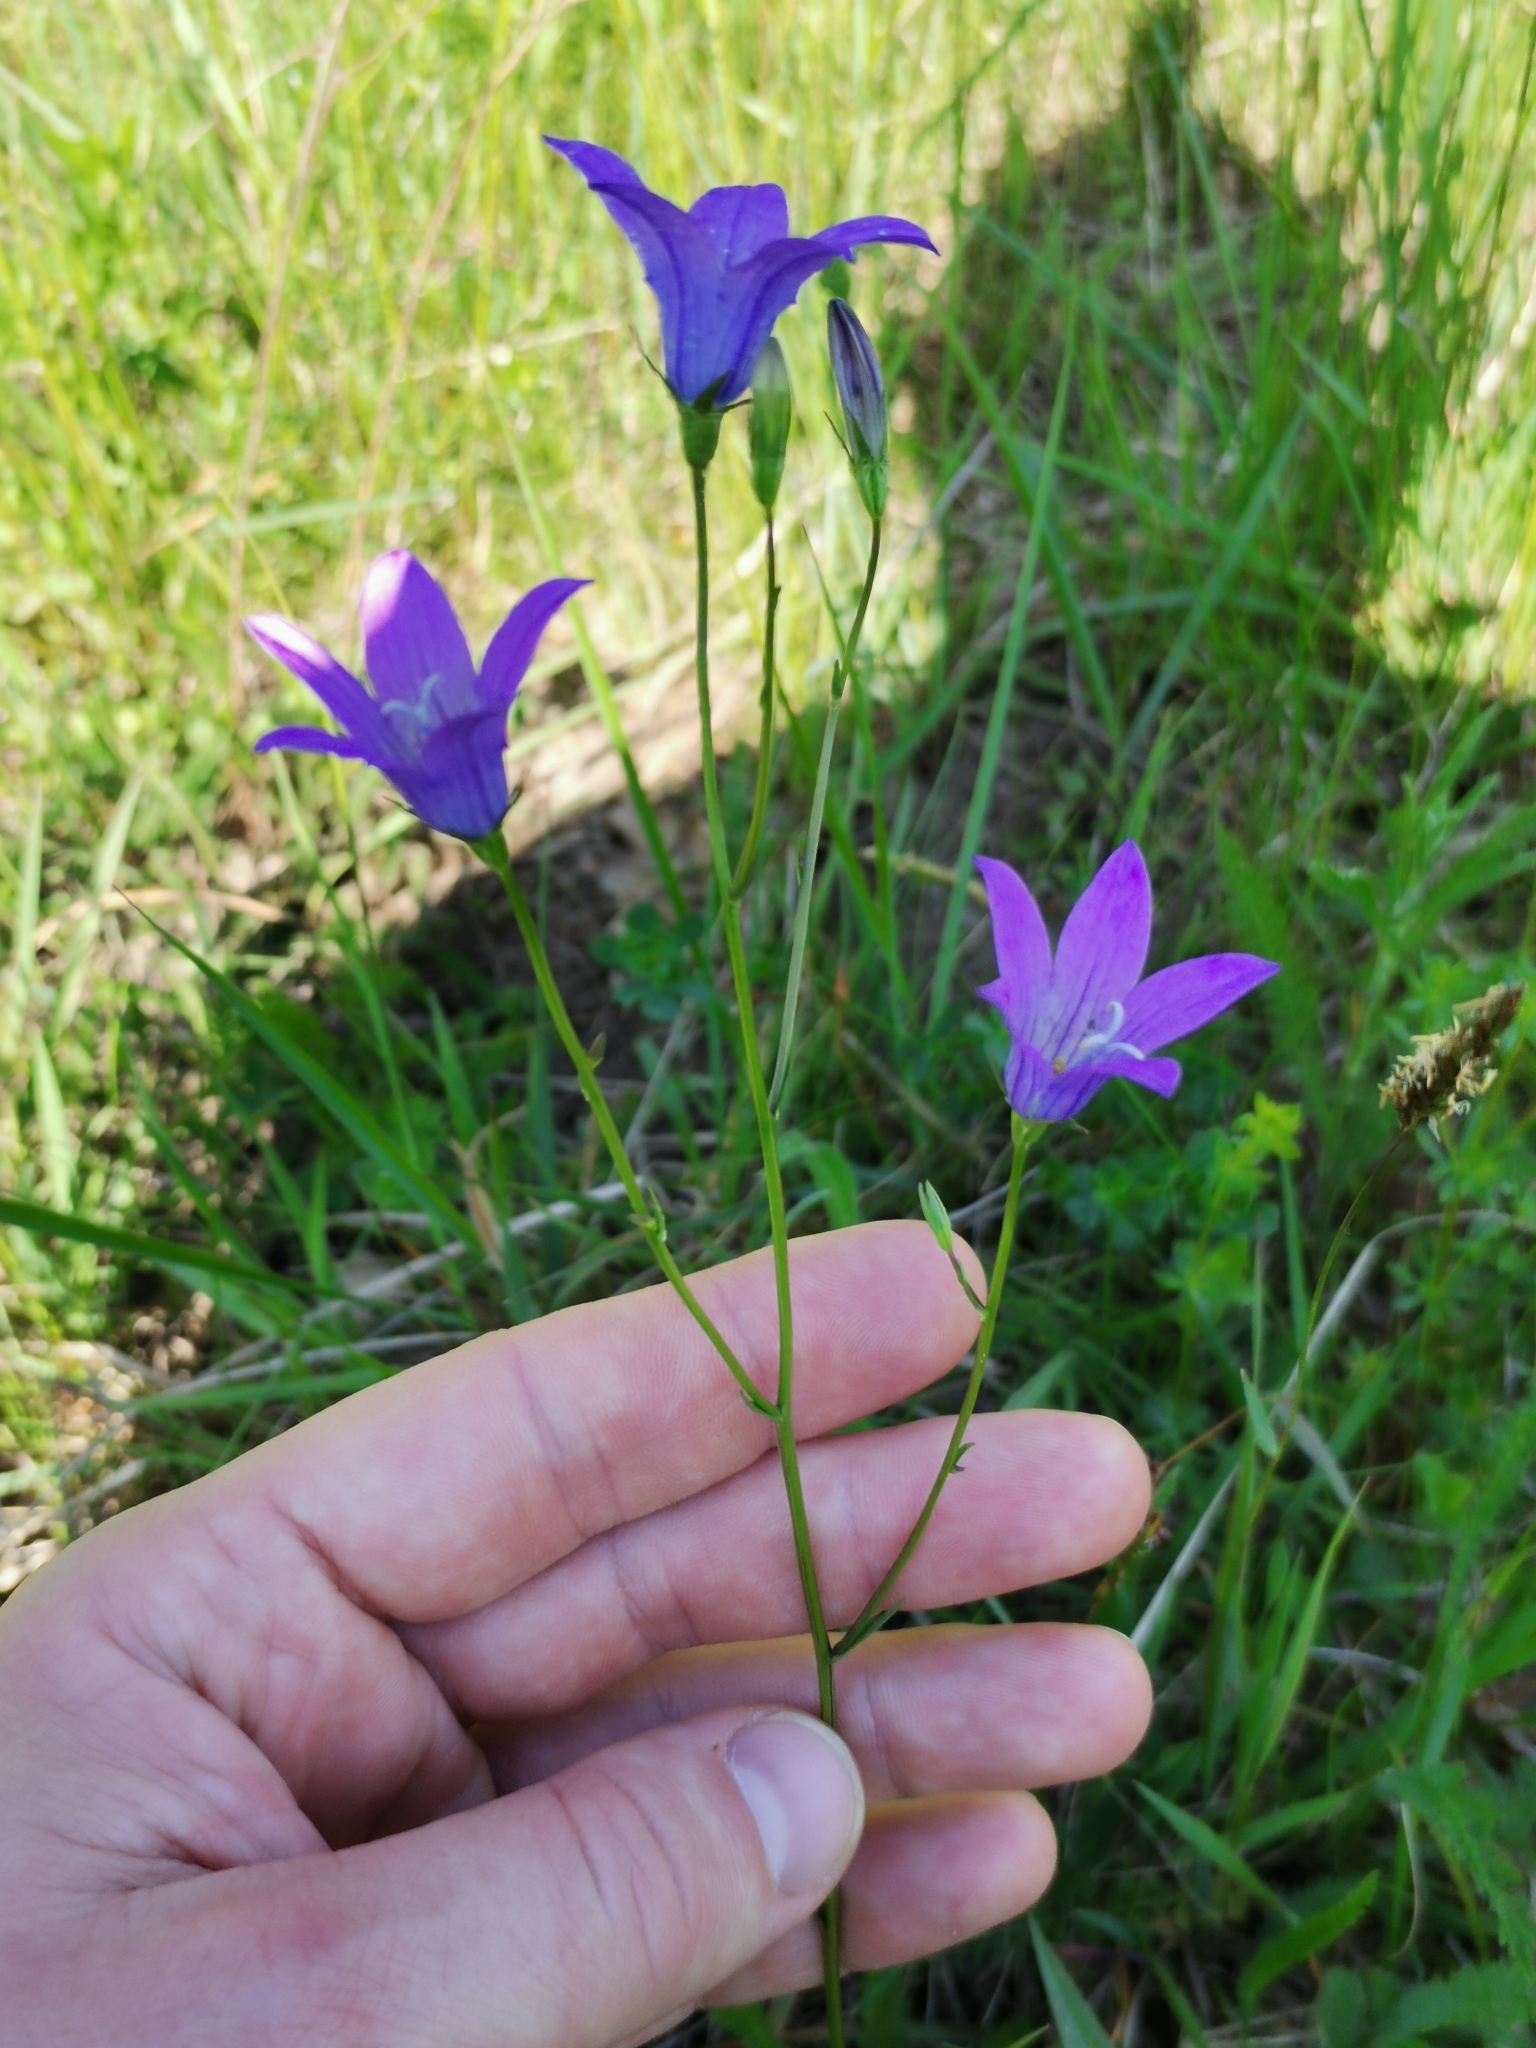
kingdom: Plantae
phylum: Tracheophyta
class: Magnoliopsida
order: Asterales
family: Campanulaceae
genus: Campanula
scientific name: Campanula patula
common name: Spreading bellflower
